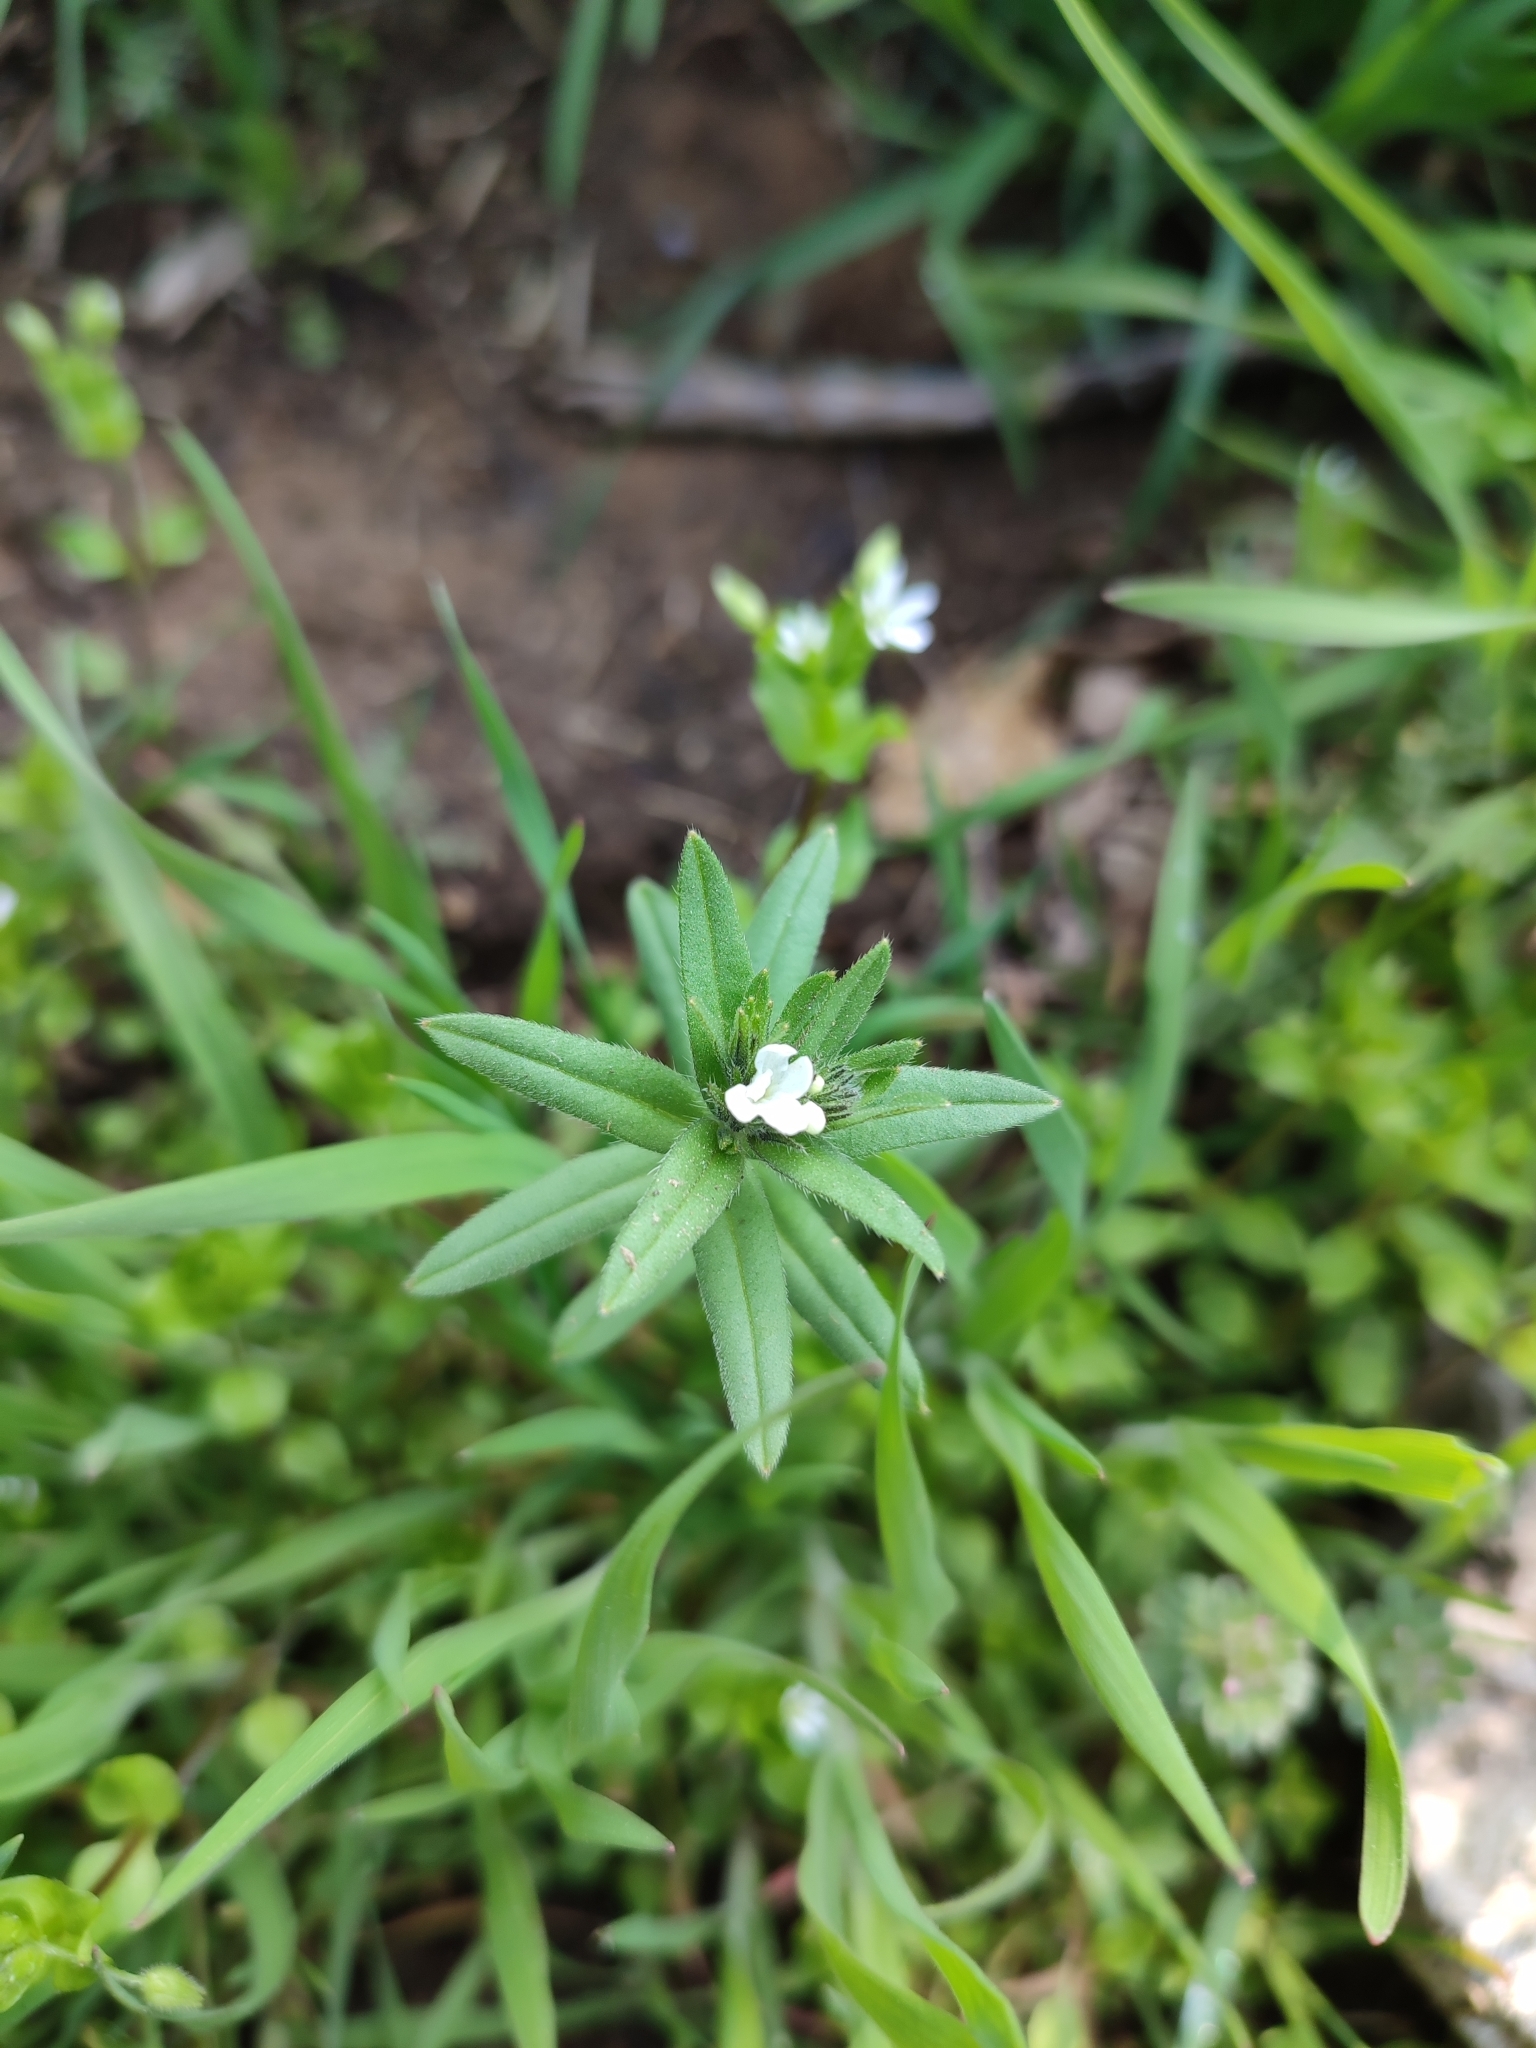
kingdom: Plantae
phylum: Tracheophyta
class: Magnoliopsida
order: Boraginales
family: Boraginaceae
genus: Buglossoides
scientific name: Buglossoides arvensis
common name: Corn gromwell
